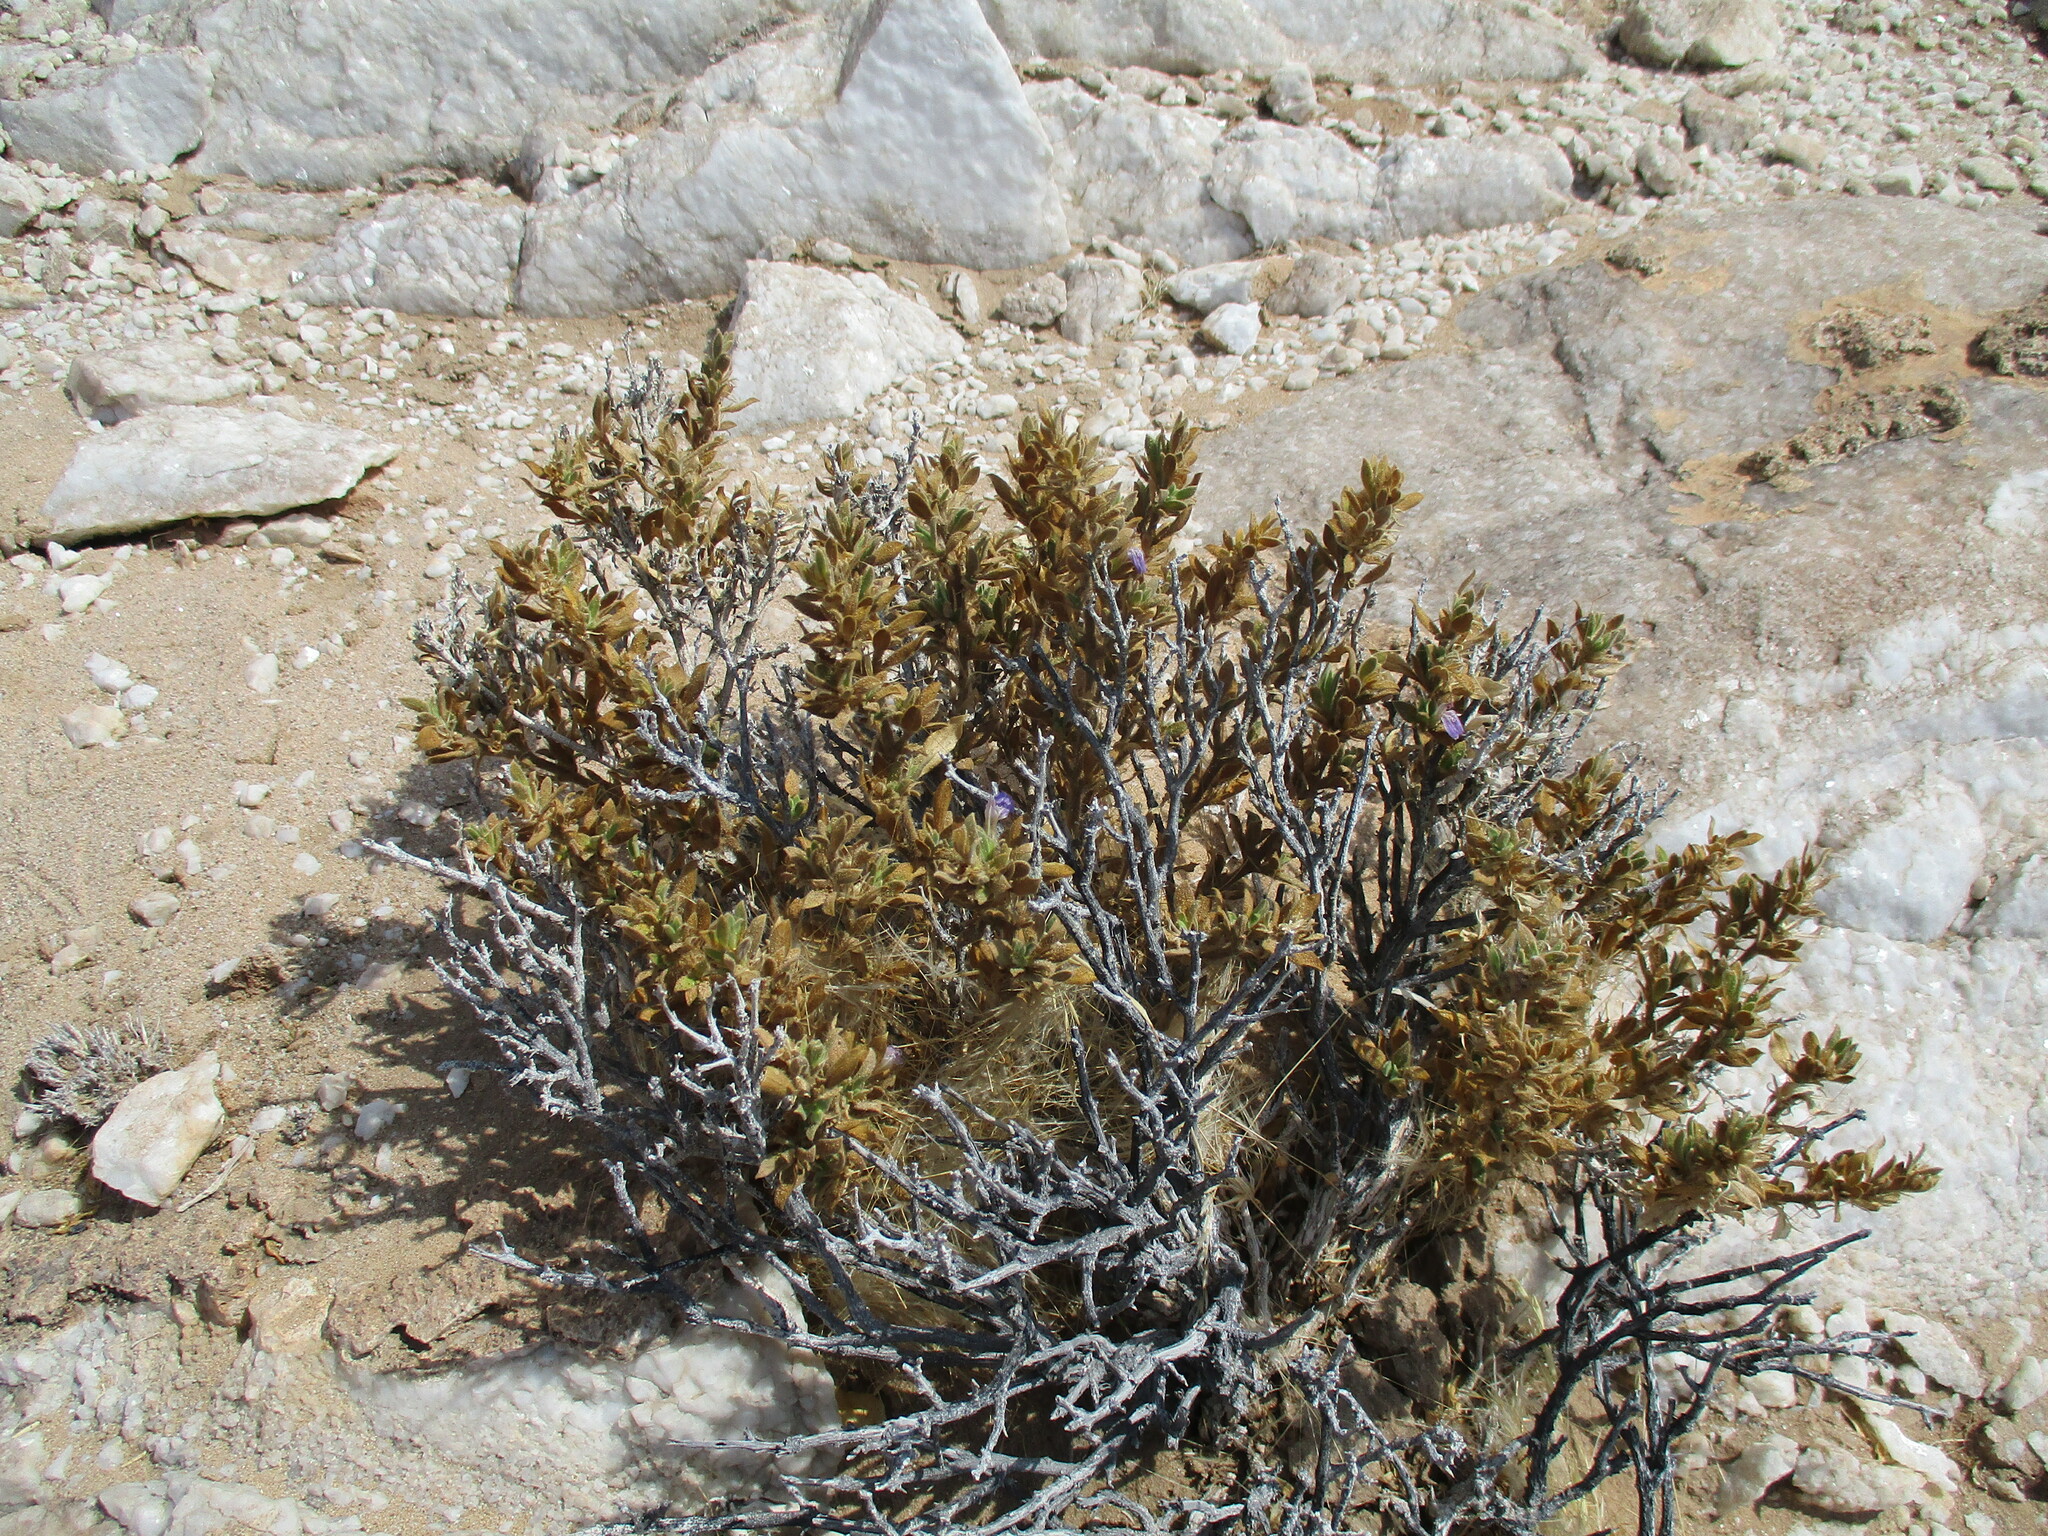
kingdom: Plantae
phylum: Tracheophyta
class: Magnoliopsida
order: Lamiales
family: Acanthaceae
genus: Pogonospermum
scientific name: Pogonospermum
